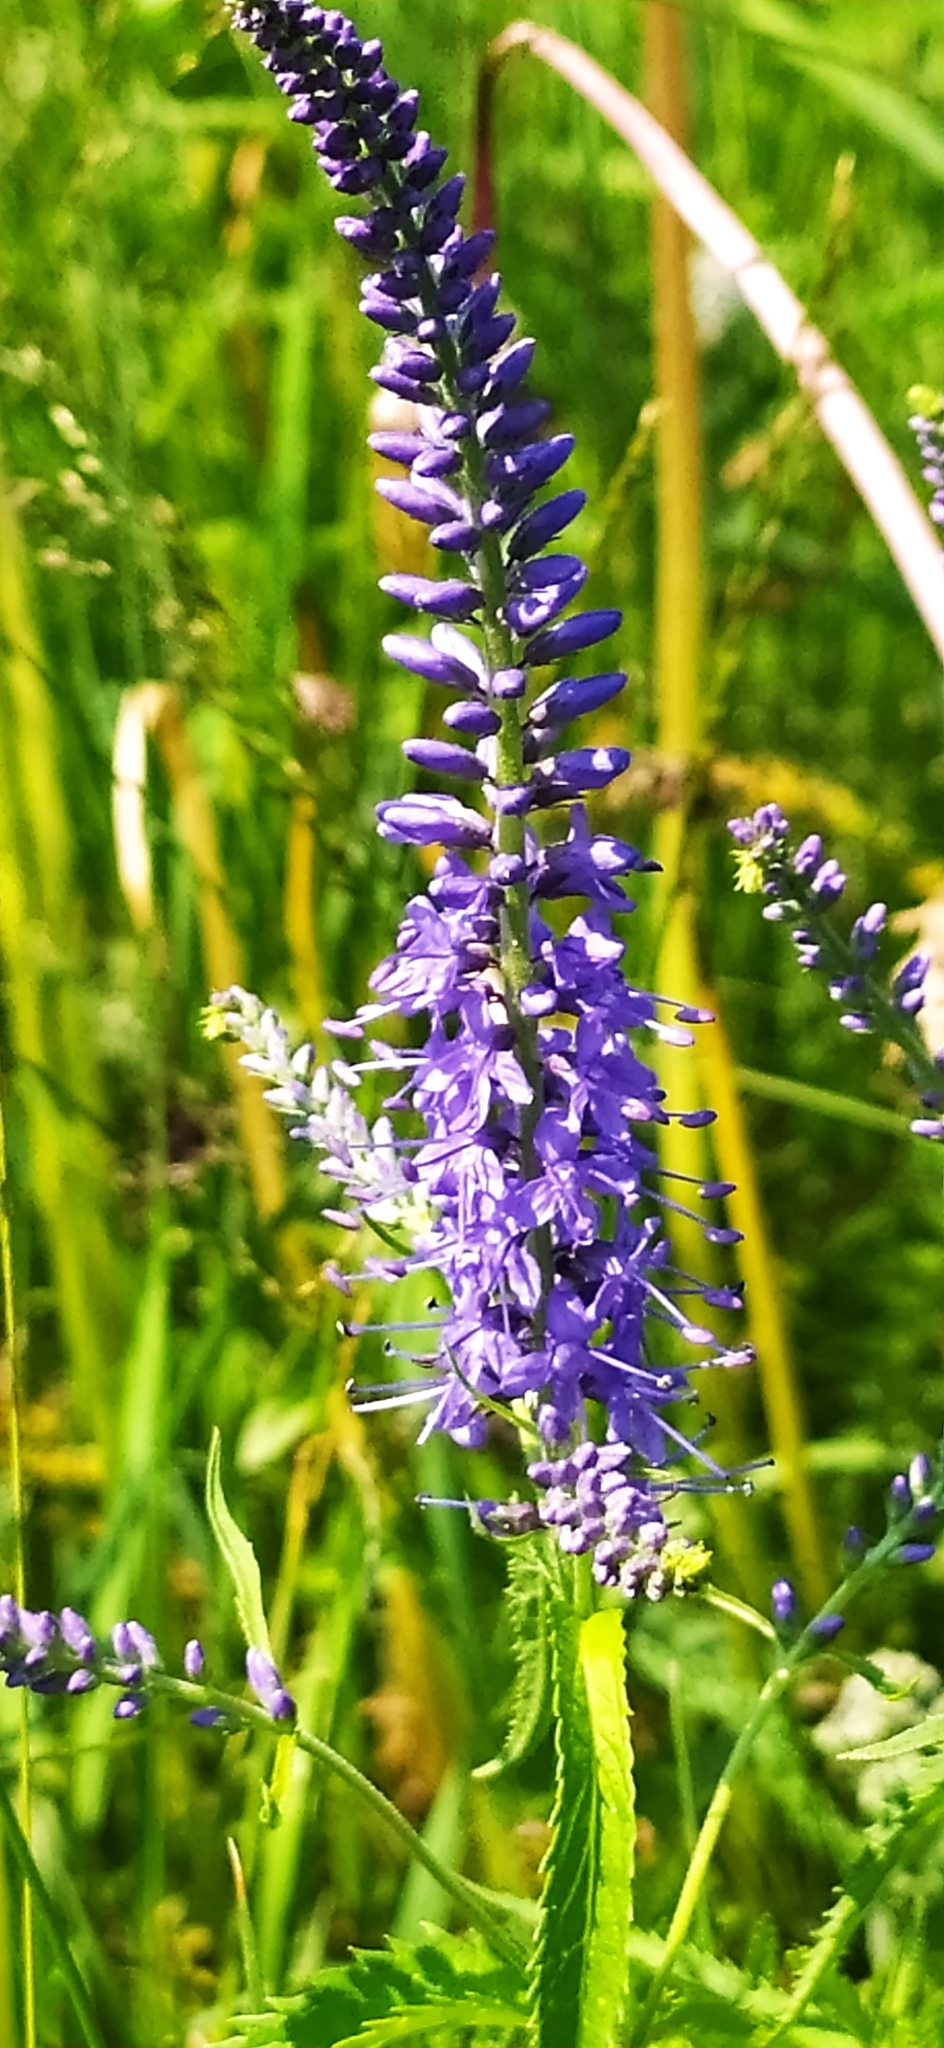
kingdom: Plantae
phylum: Tracheophyta
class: Magnoliopsida
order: Lamiales
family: Plantaginaceae
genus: Veronica
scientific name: Veronica longifolia
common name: Garden speedwell
